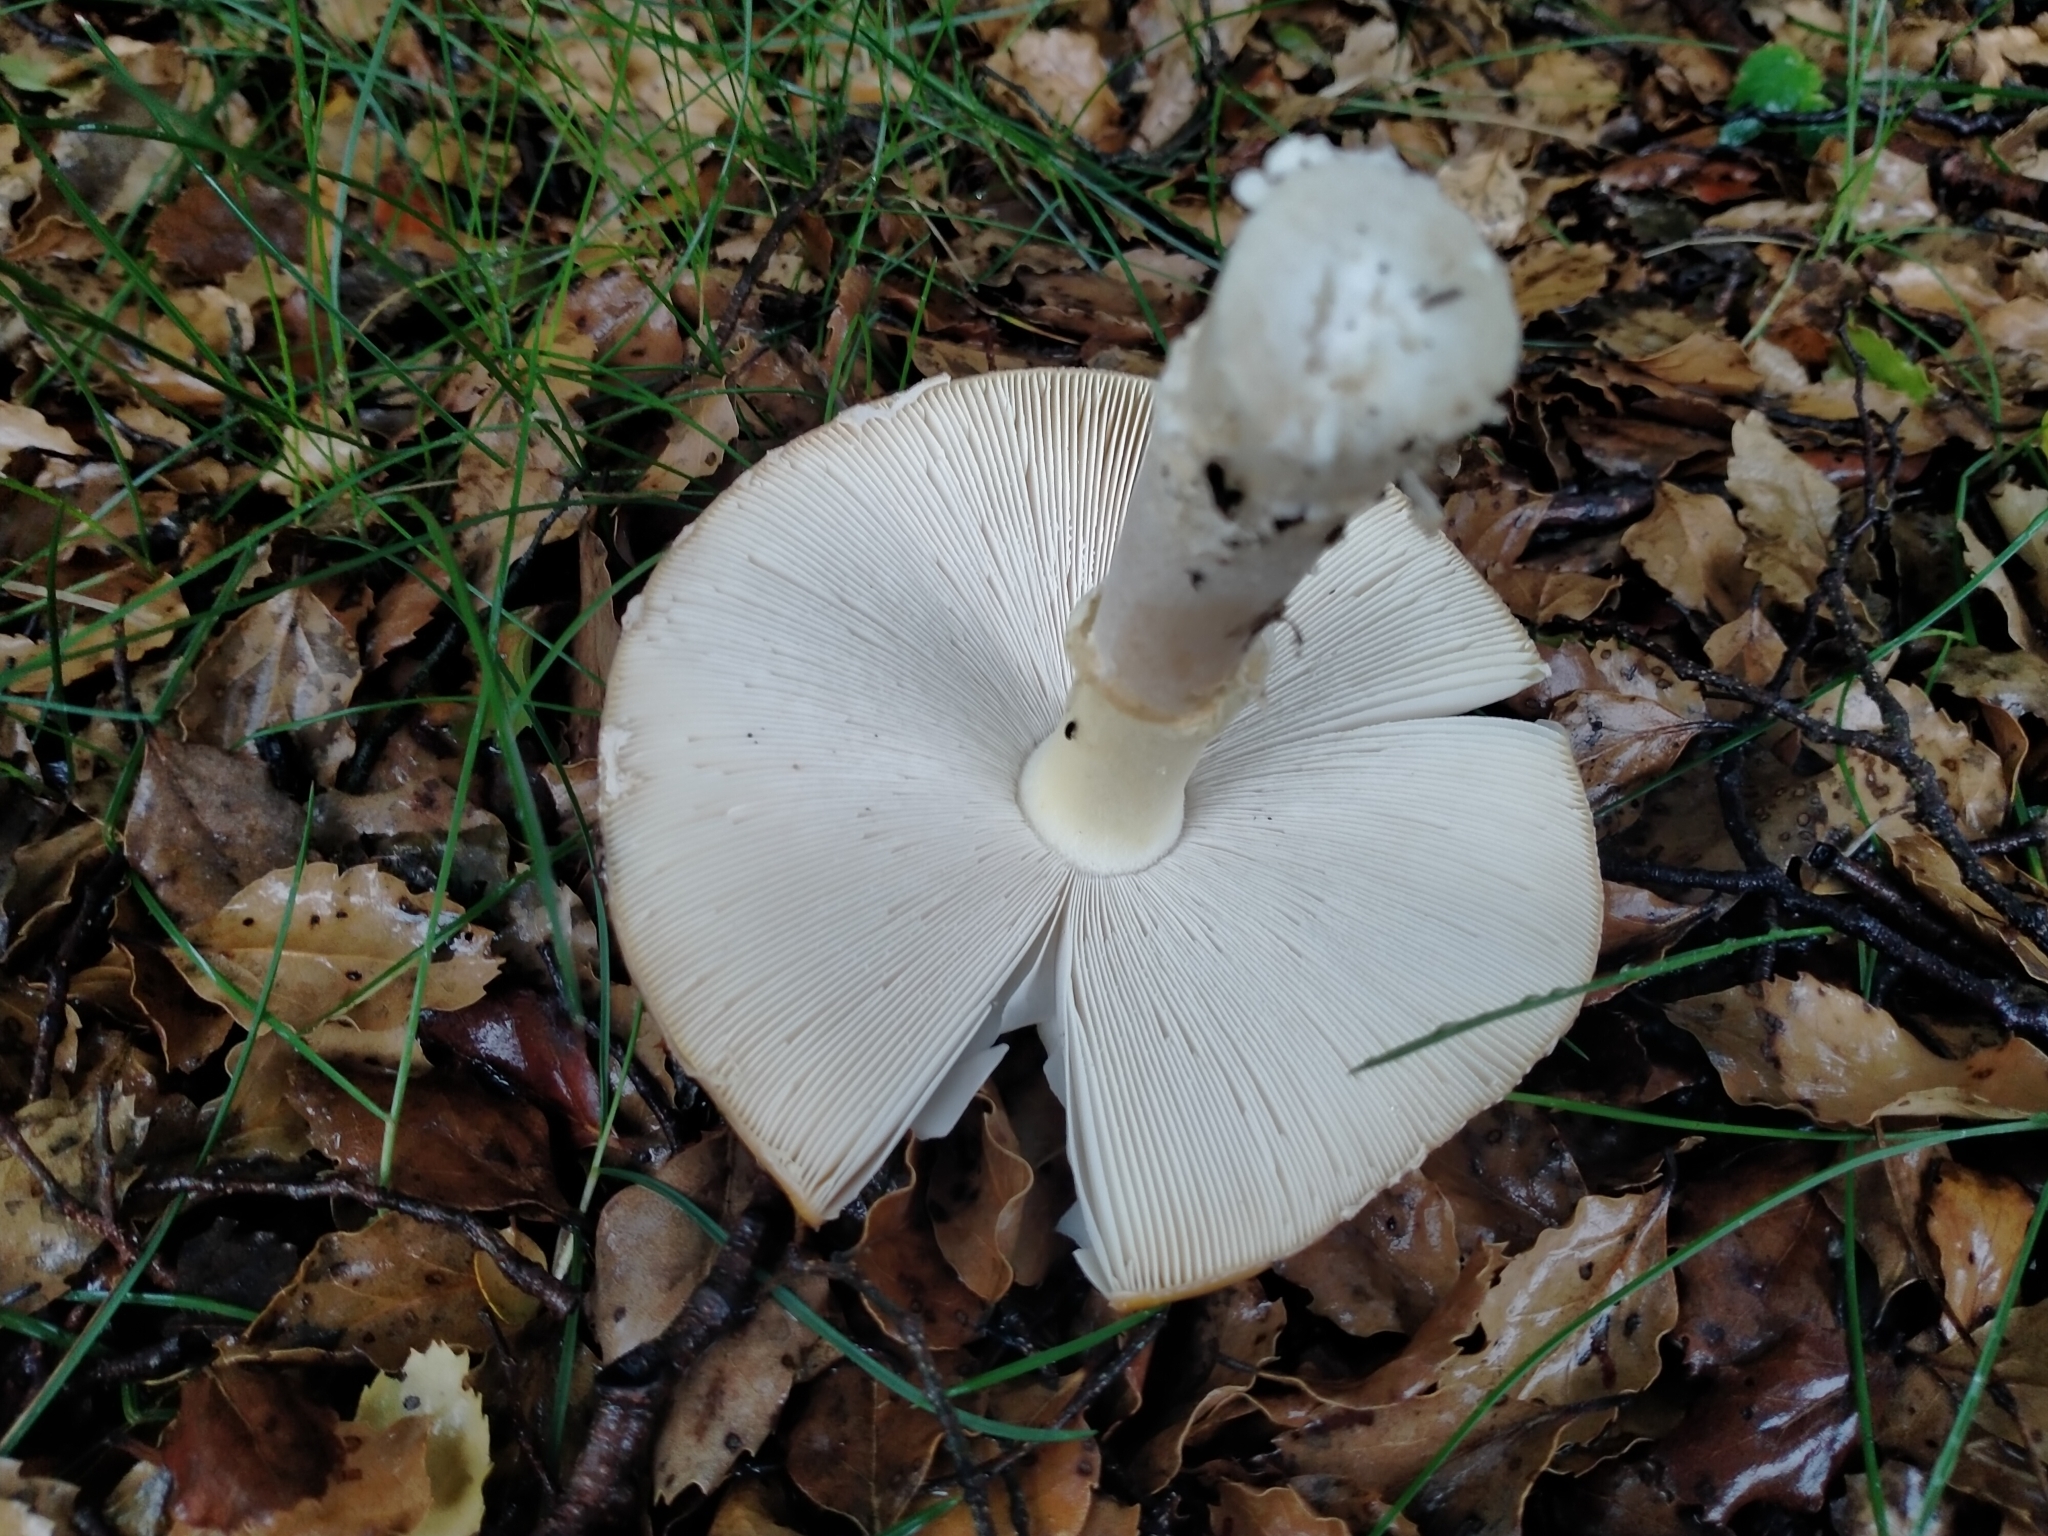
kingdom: Fungi
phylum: Basidiomycota
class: Agaricomycetes
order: Agaricales
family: Amanitaceae
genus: Amanita
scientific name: Amanita muscaria
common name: Fly agaric
